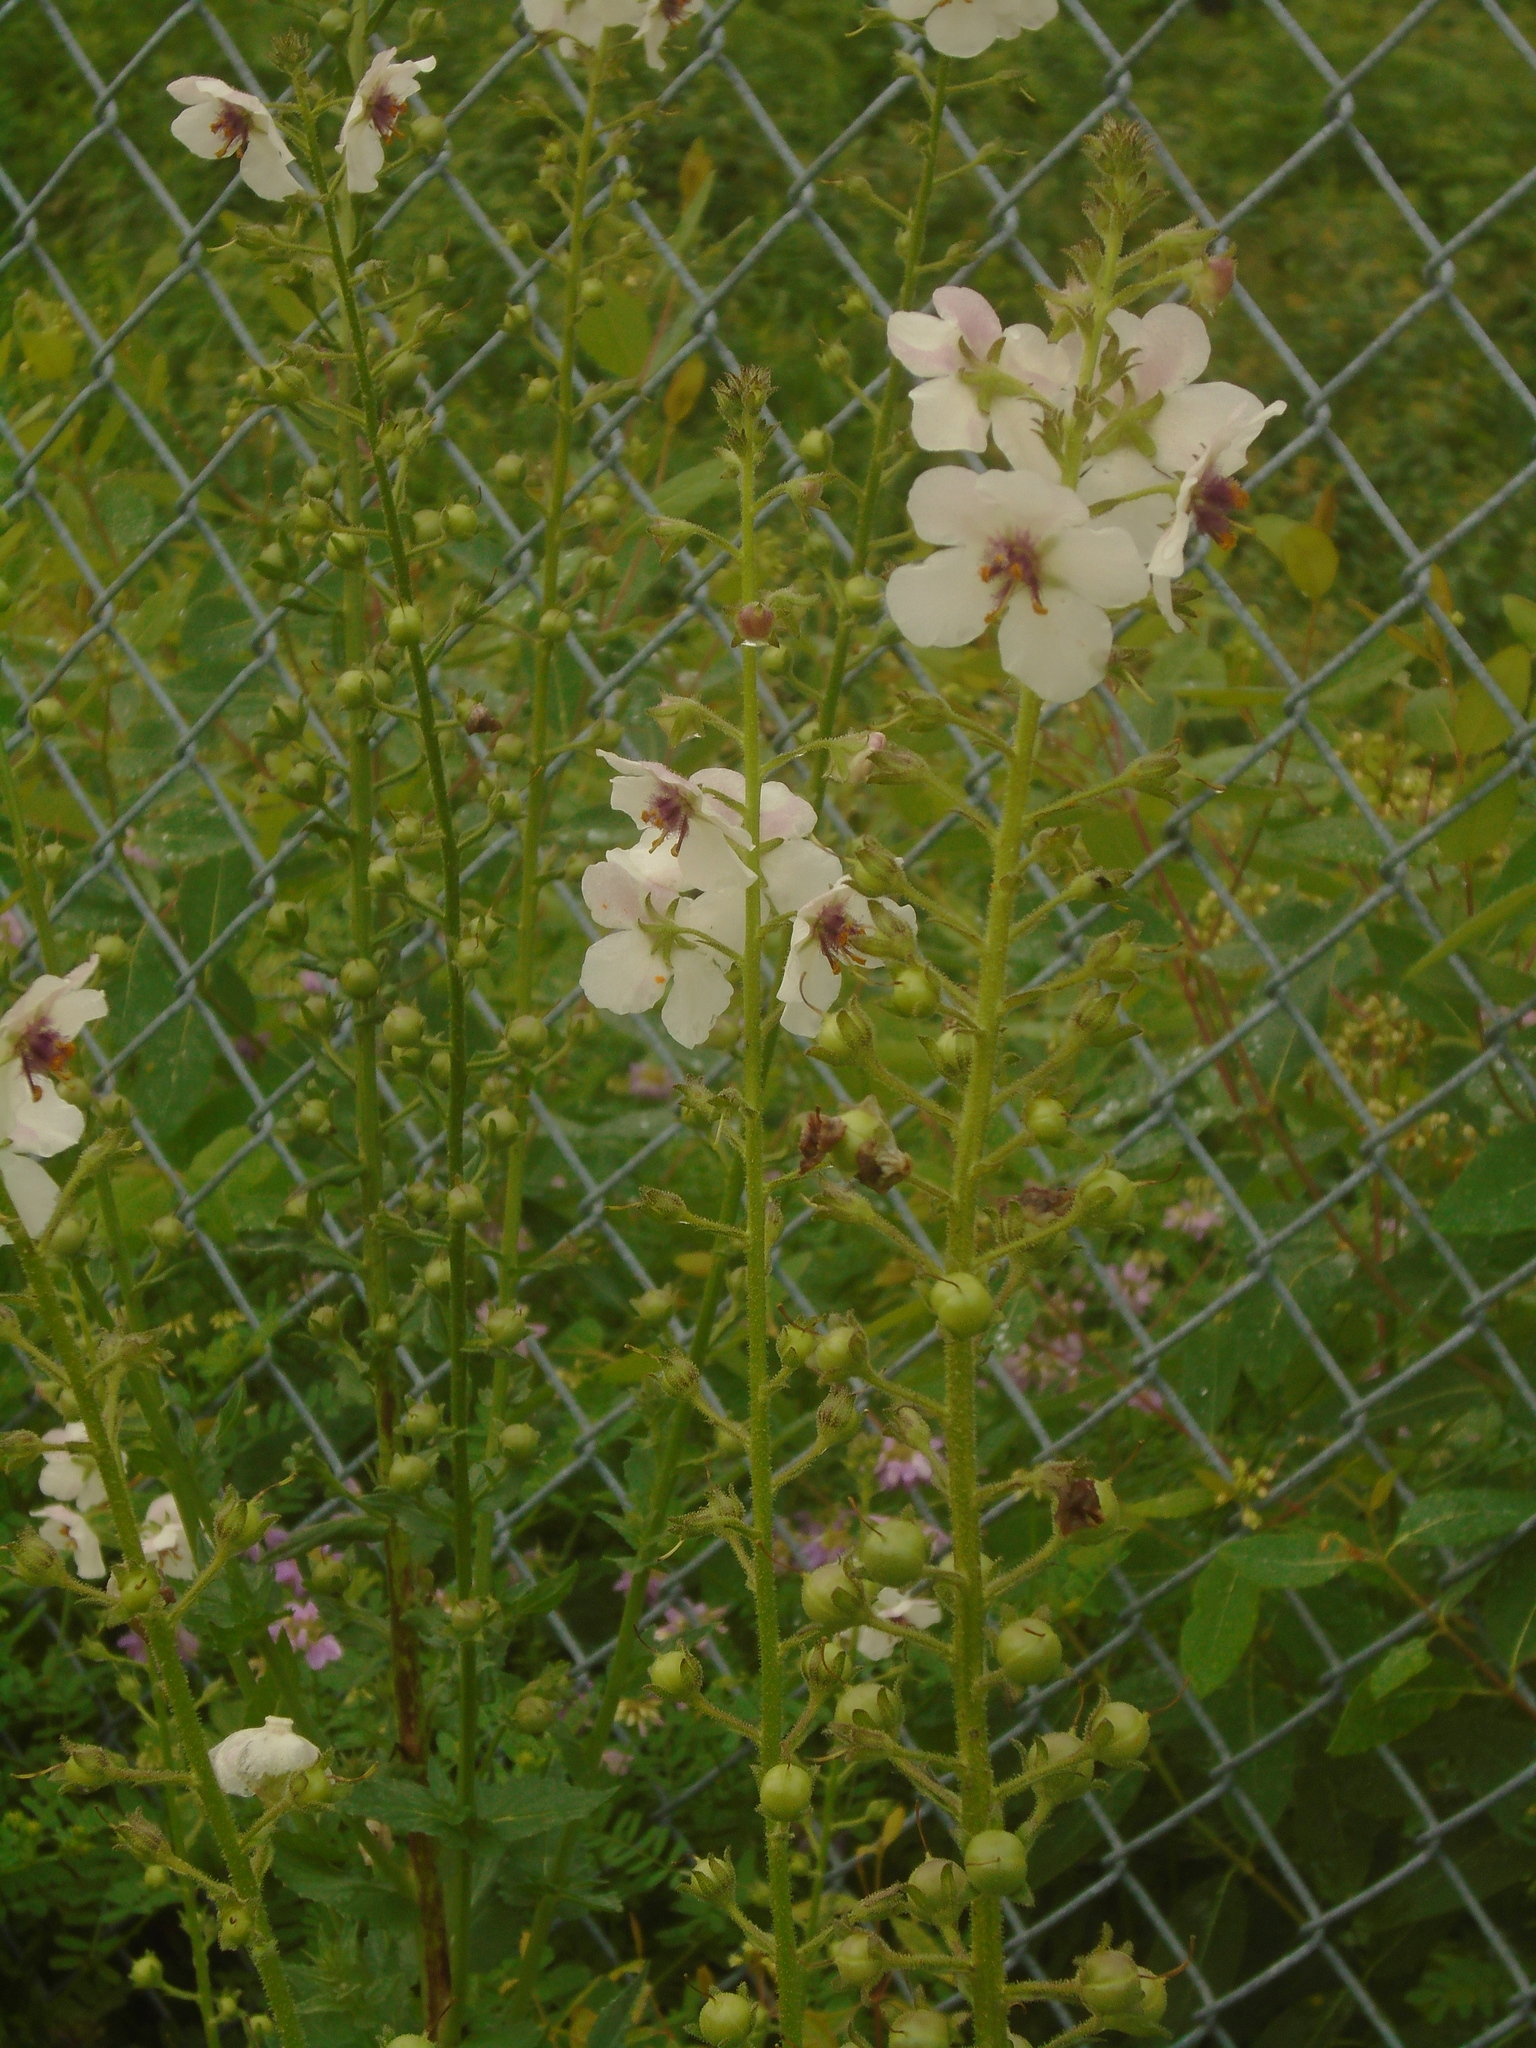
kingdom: Plantae
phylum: Tracheophyta
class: Magnoliopsida
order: Lamiales
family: Scrophulariaceae
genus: Verbascum
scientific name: Verbascum blattaria
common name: Moth mullein
